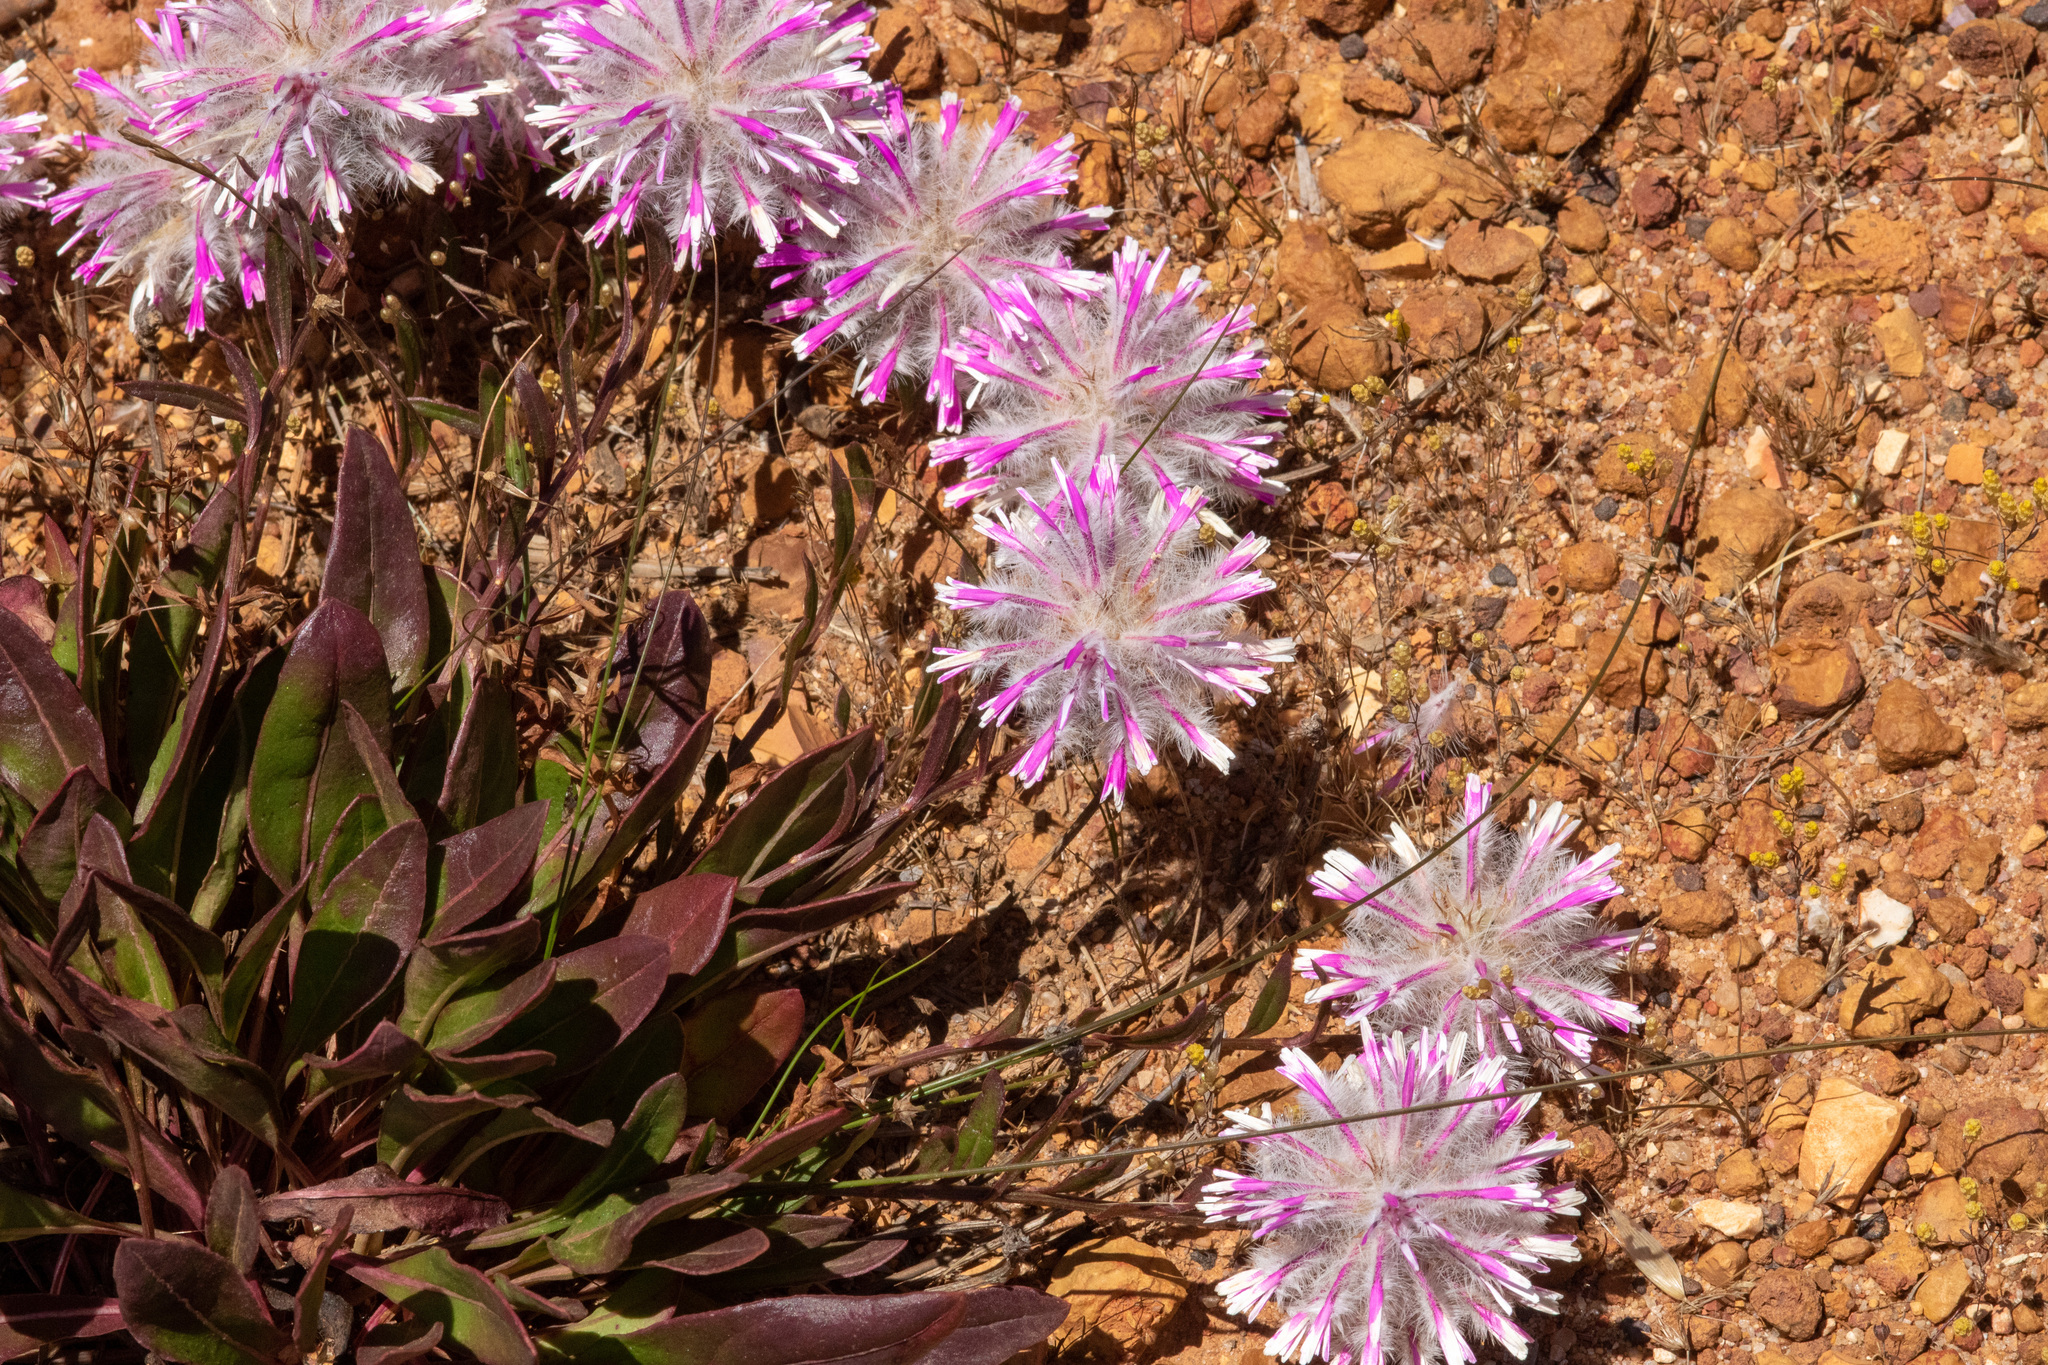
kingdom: Plantae
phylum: Tracheophyta
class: Magnoliopsida
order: Caryophyllales
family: Amaranthaceae
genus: Ptilotus
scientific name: Ptilotus manglesii
